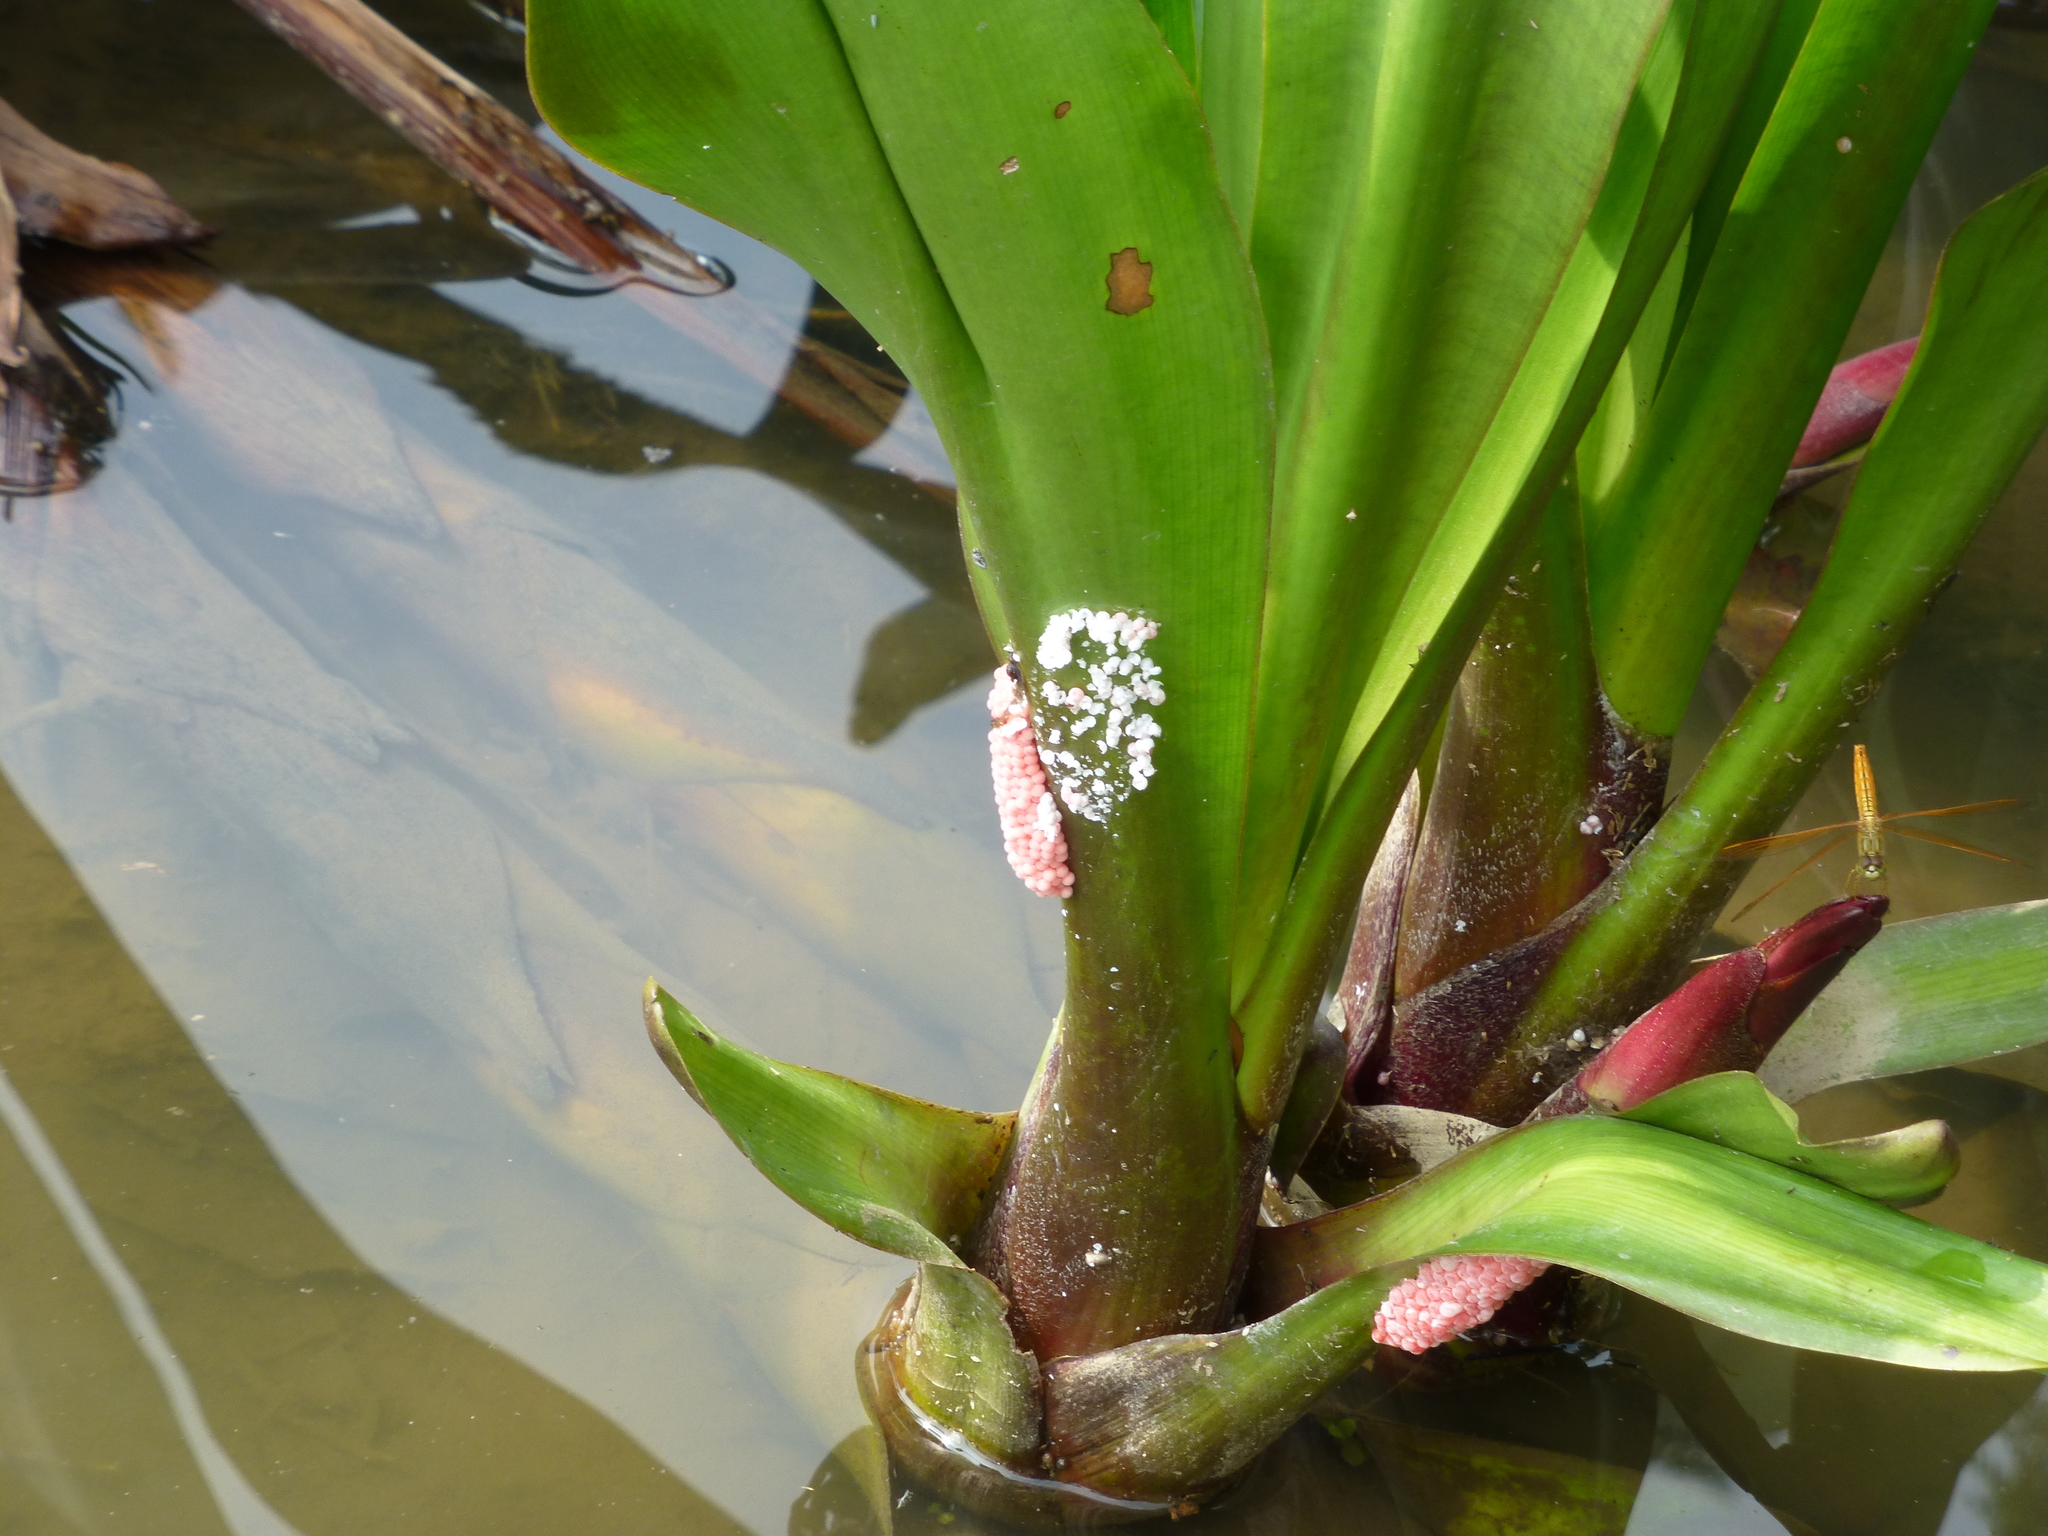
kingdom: Animalia
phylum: Arthropoda
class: Insecta
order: Odonata
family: Libellulidae
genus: Crocothemis
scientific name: Crocothemis servilia
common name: Scarlet skimmer
